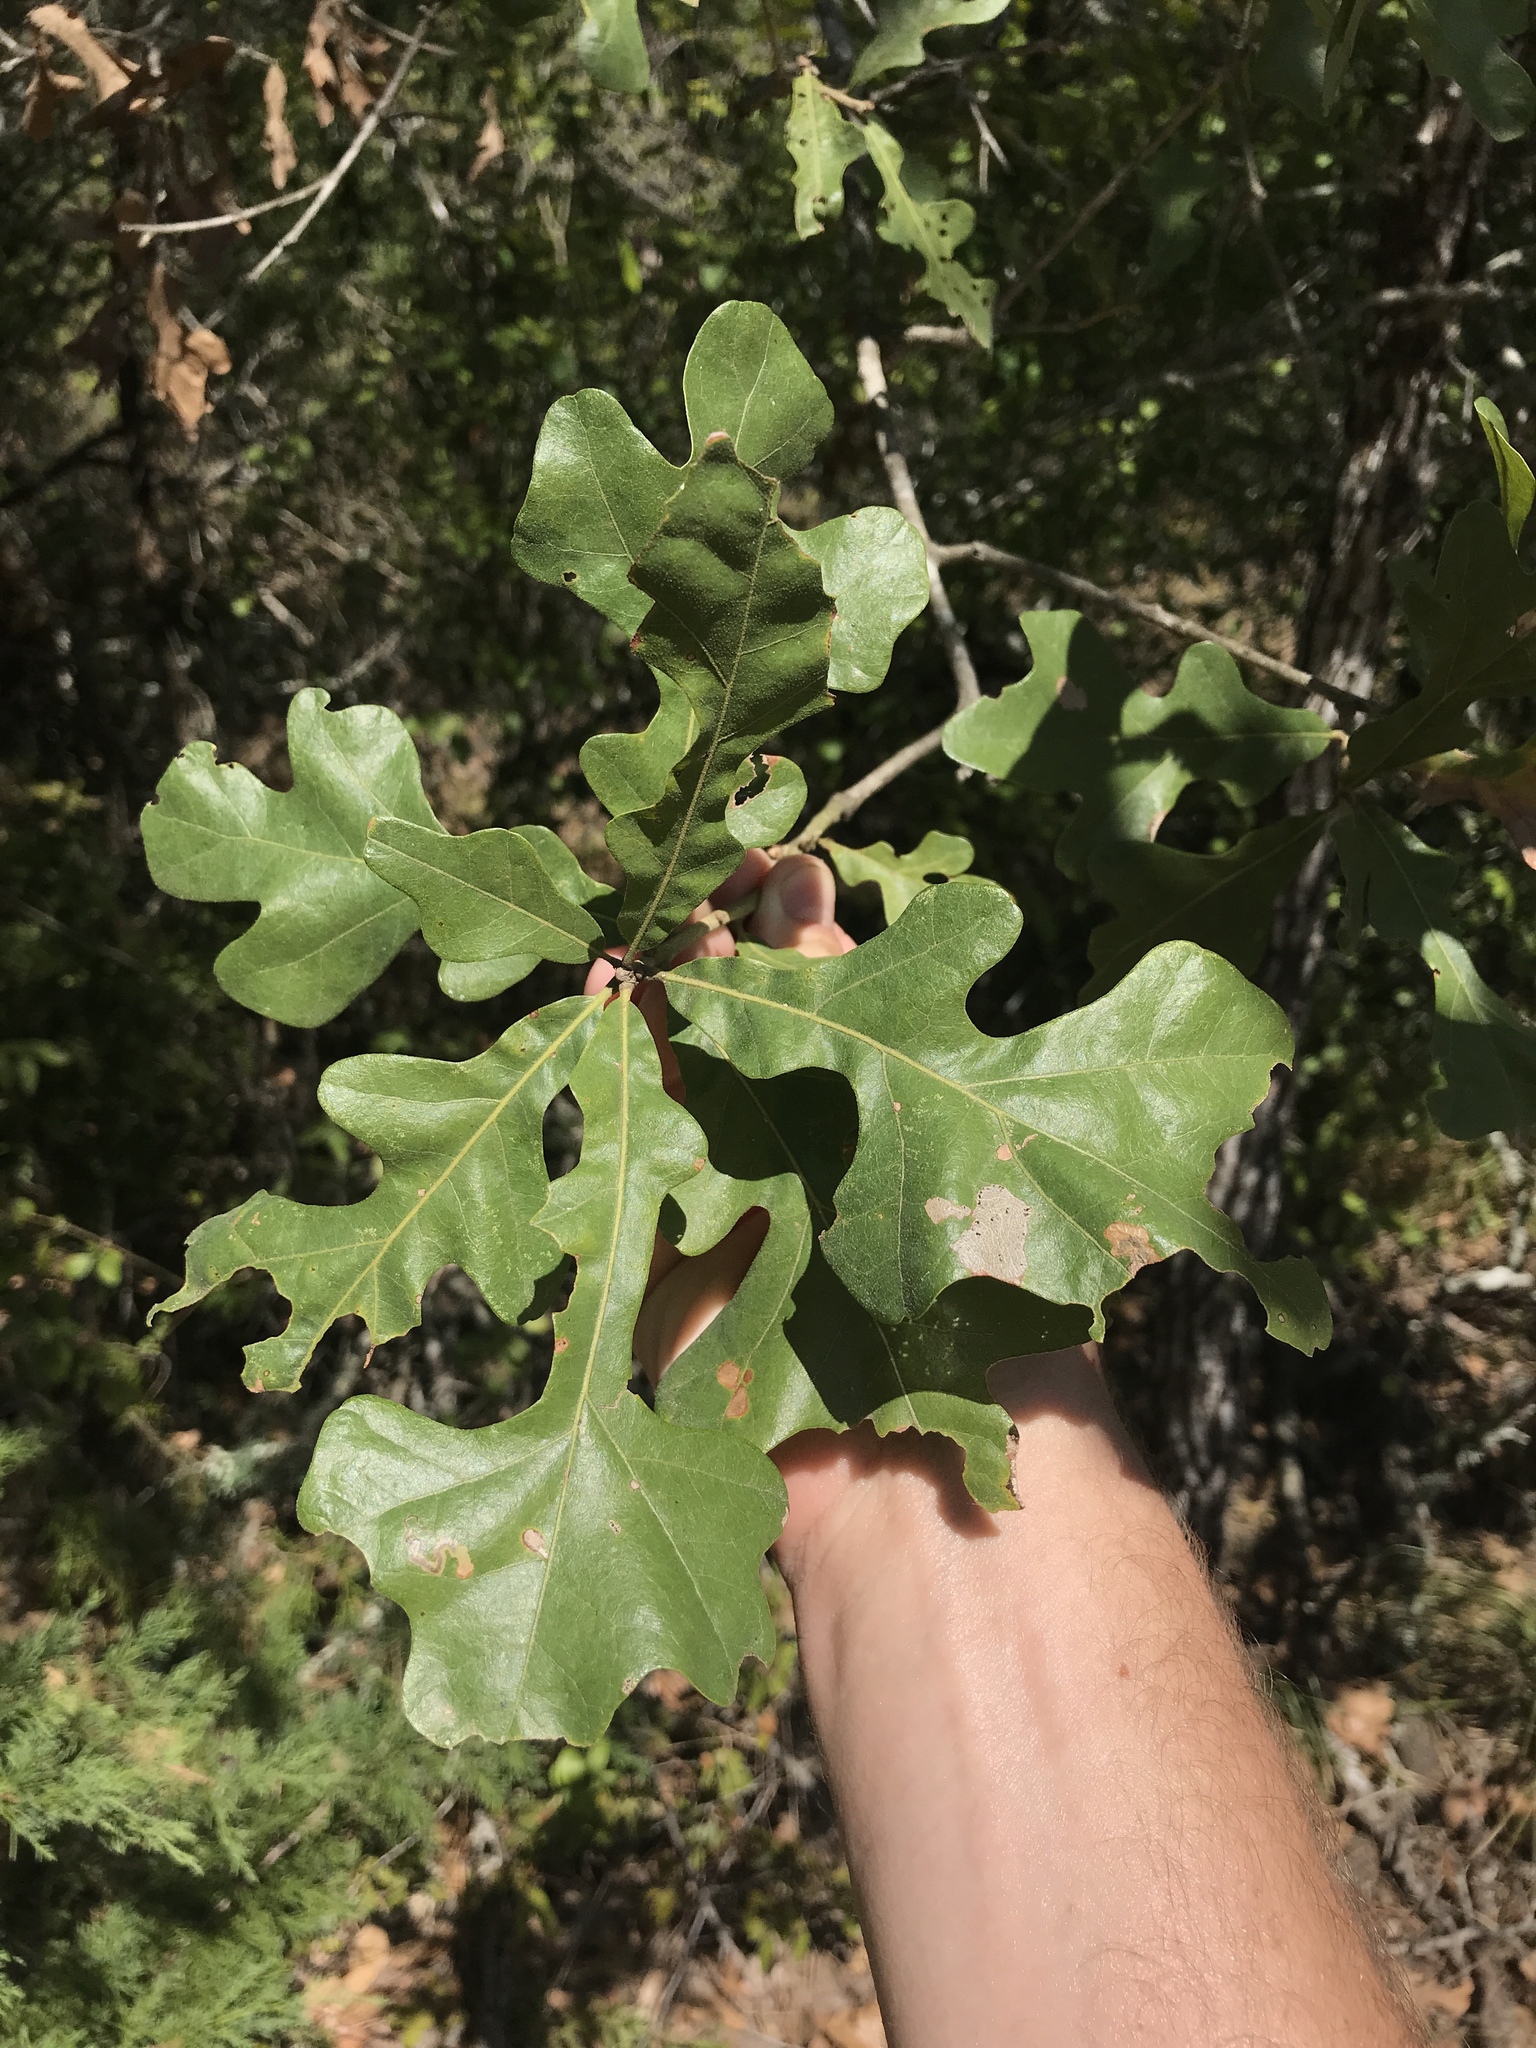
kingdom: Plantae
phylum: Tracheophyta
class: Magnoliopsida
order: Fagales
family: Fagaceae
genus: Quercus
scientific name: Quercus stellata
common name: Post oak
